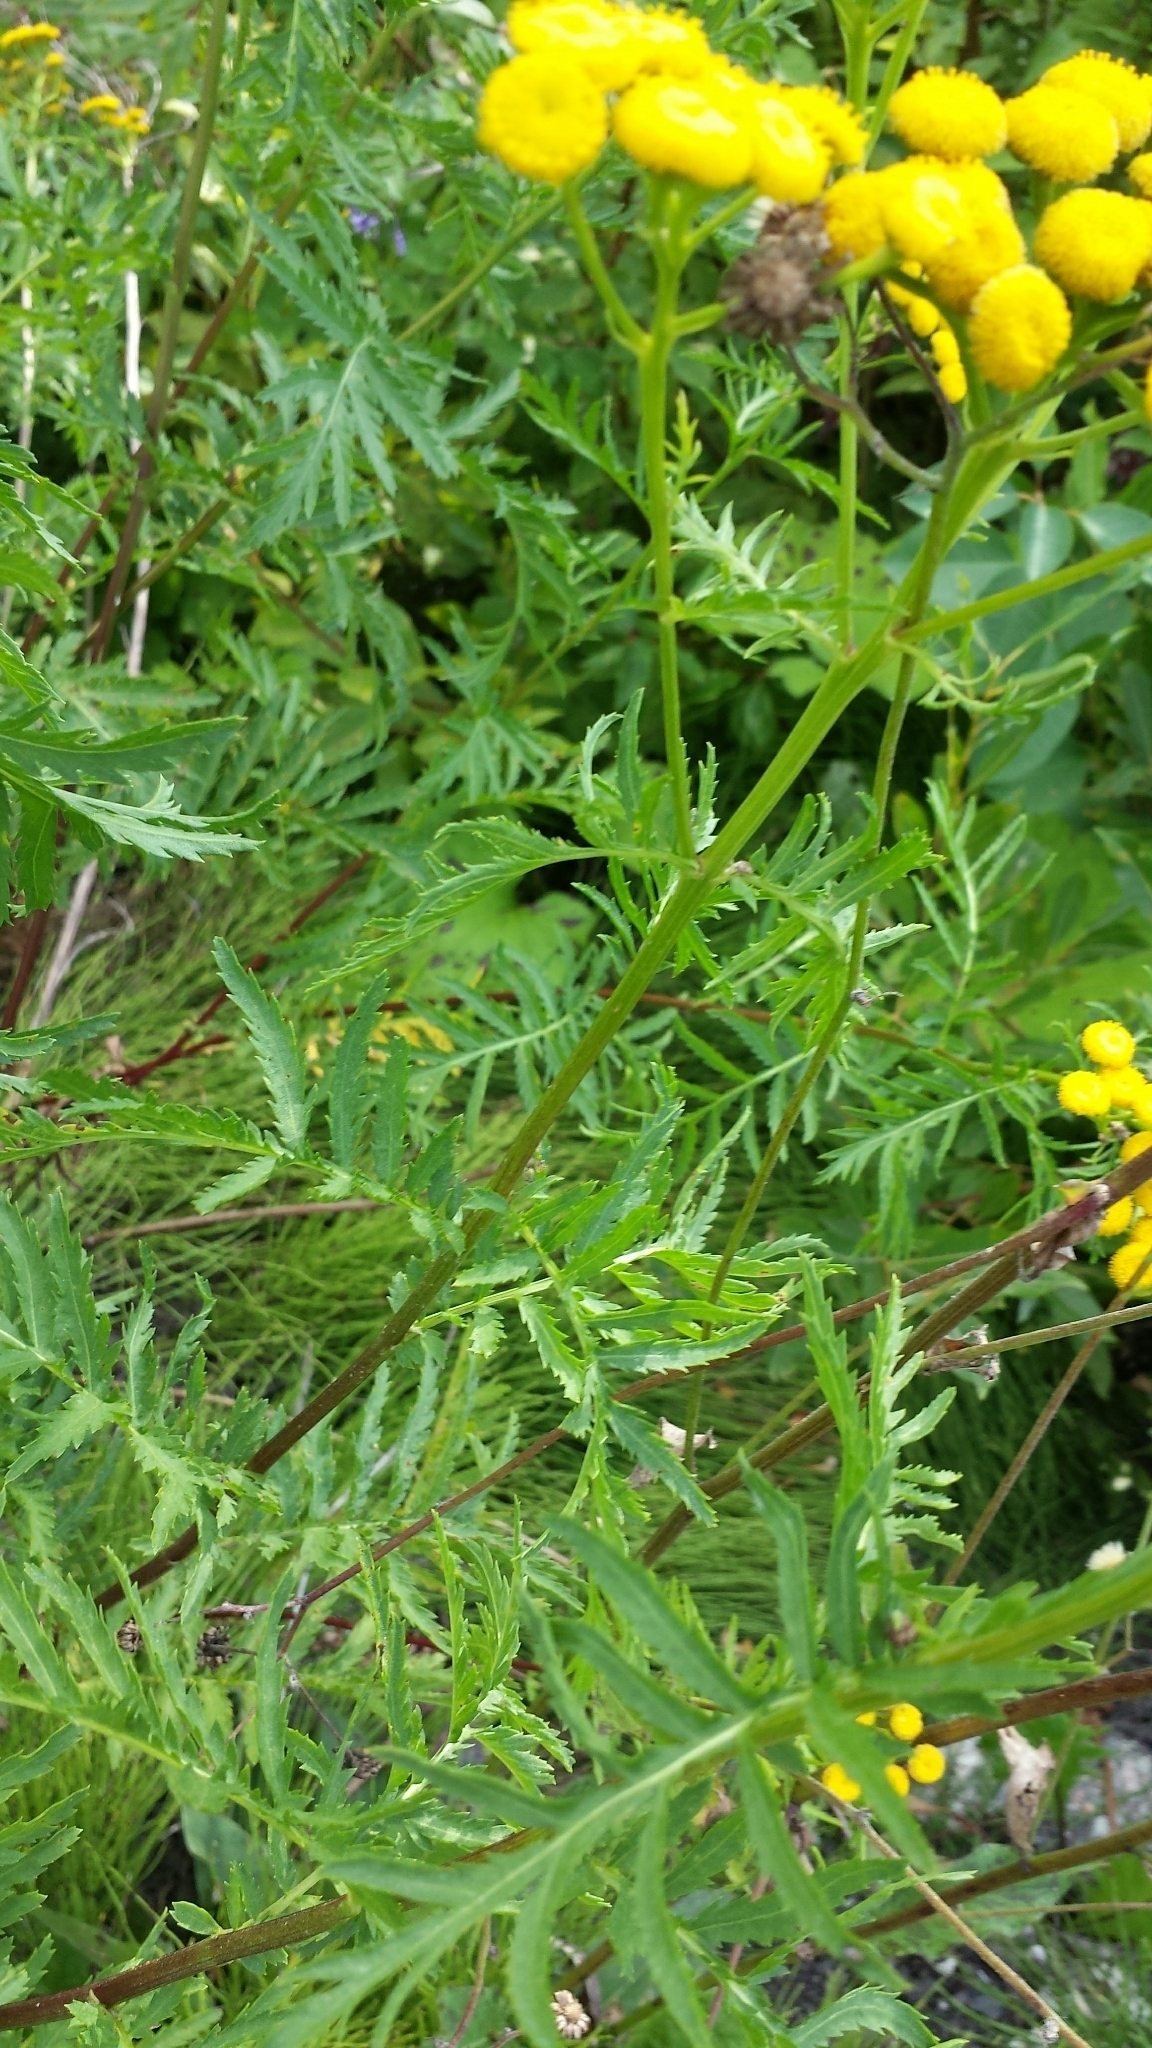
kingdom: Plantae
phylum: Tracheophyta
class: Magnoliopsida
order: Asterales
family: Asteraceae
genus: Tanacetum
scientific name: Tanacetum vulgare
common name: Common tansy
